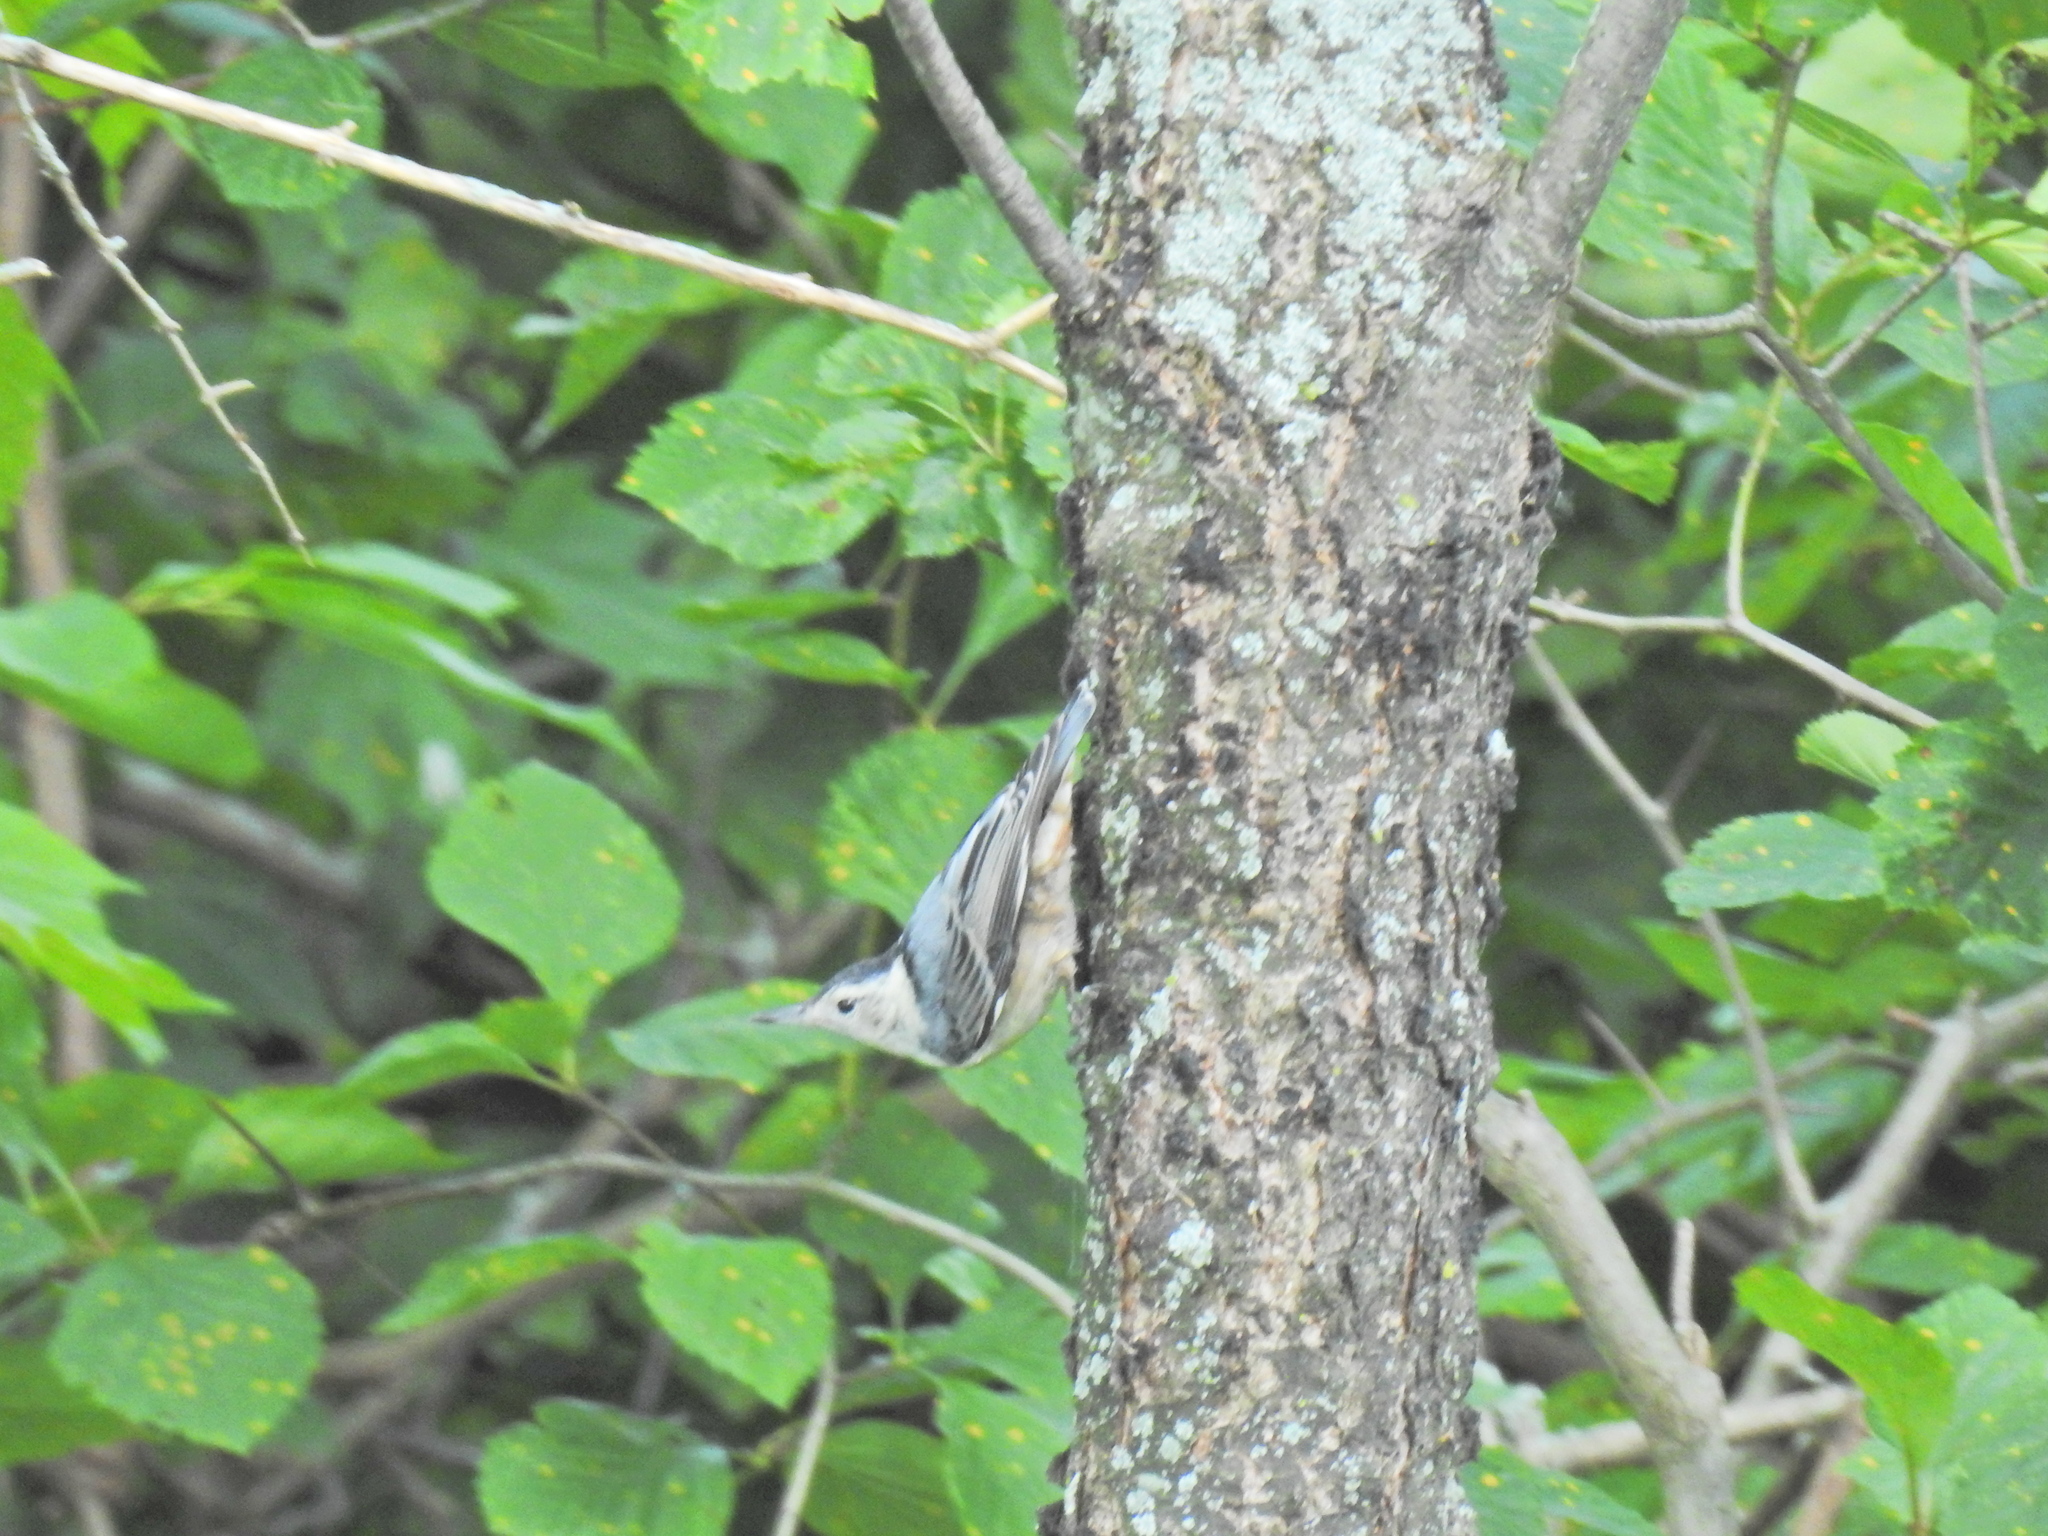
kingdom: Animalia
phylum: Chordata
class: Aves
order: Passeriformes
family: Sittidae
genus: Sitta
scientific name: Sitta carolinensis
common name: White-breasted nuthatch
